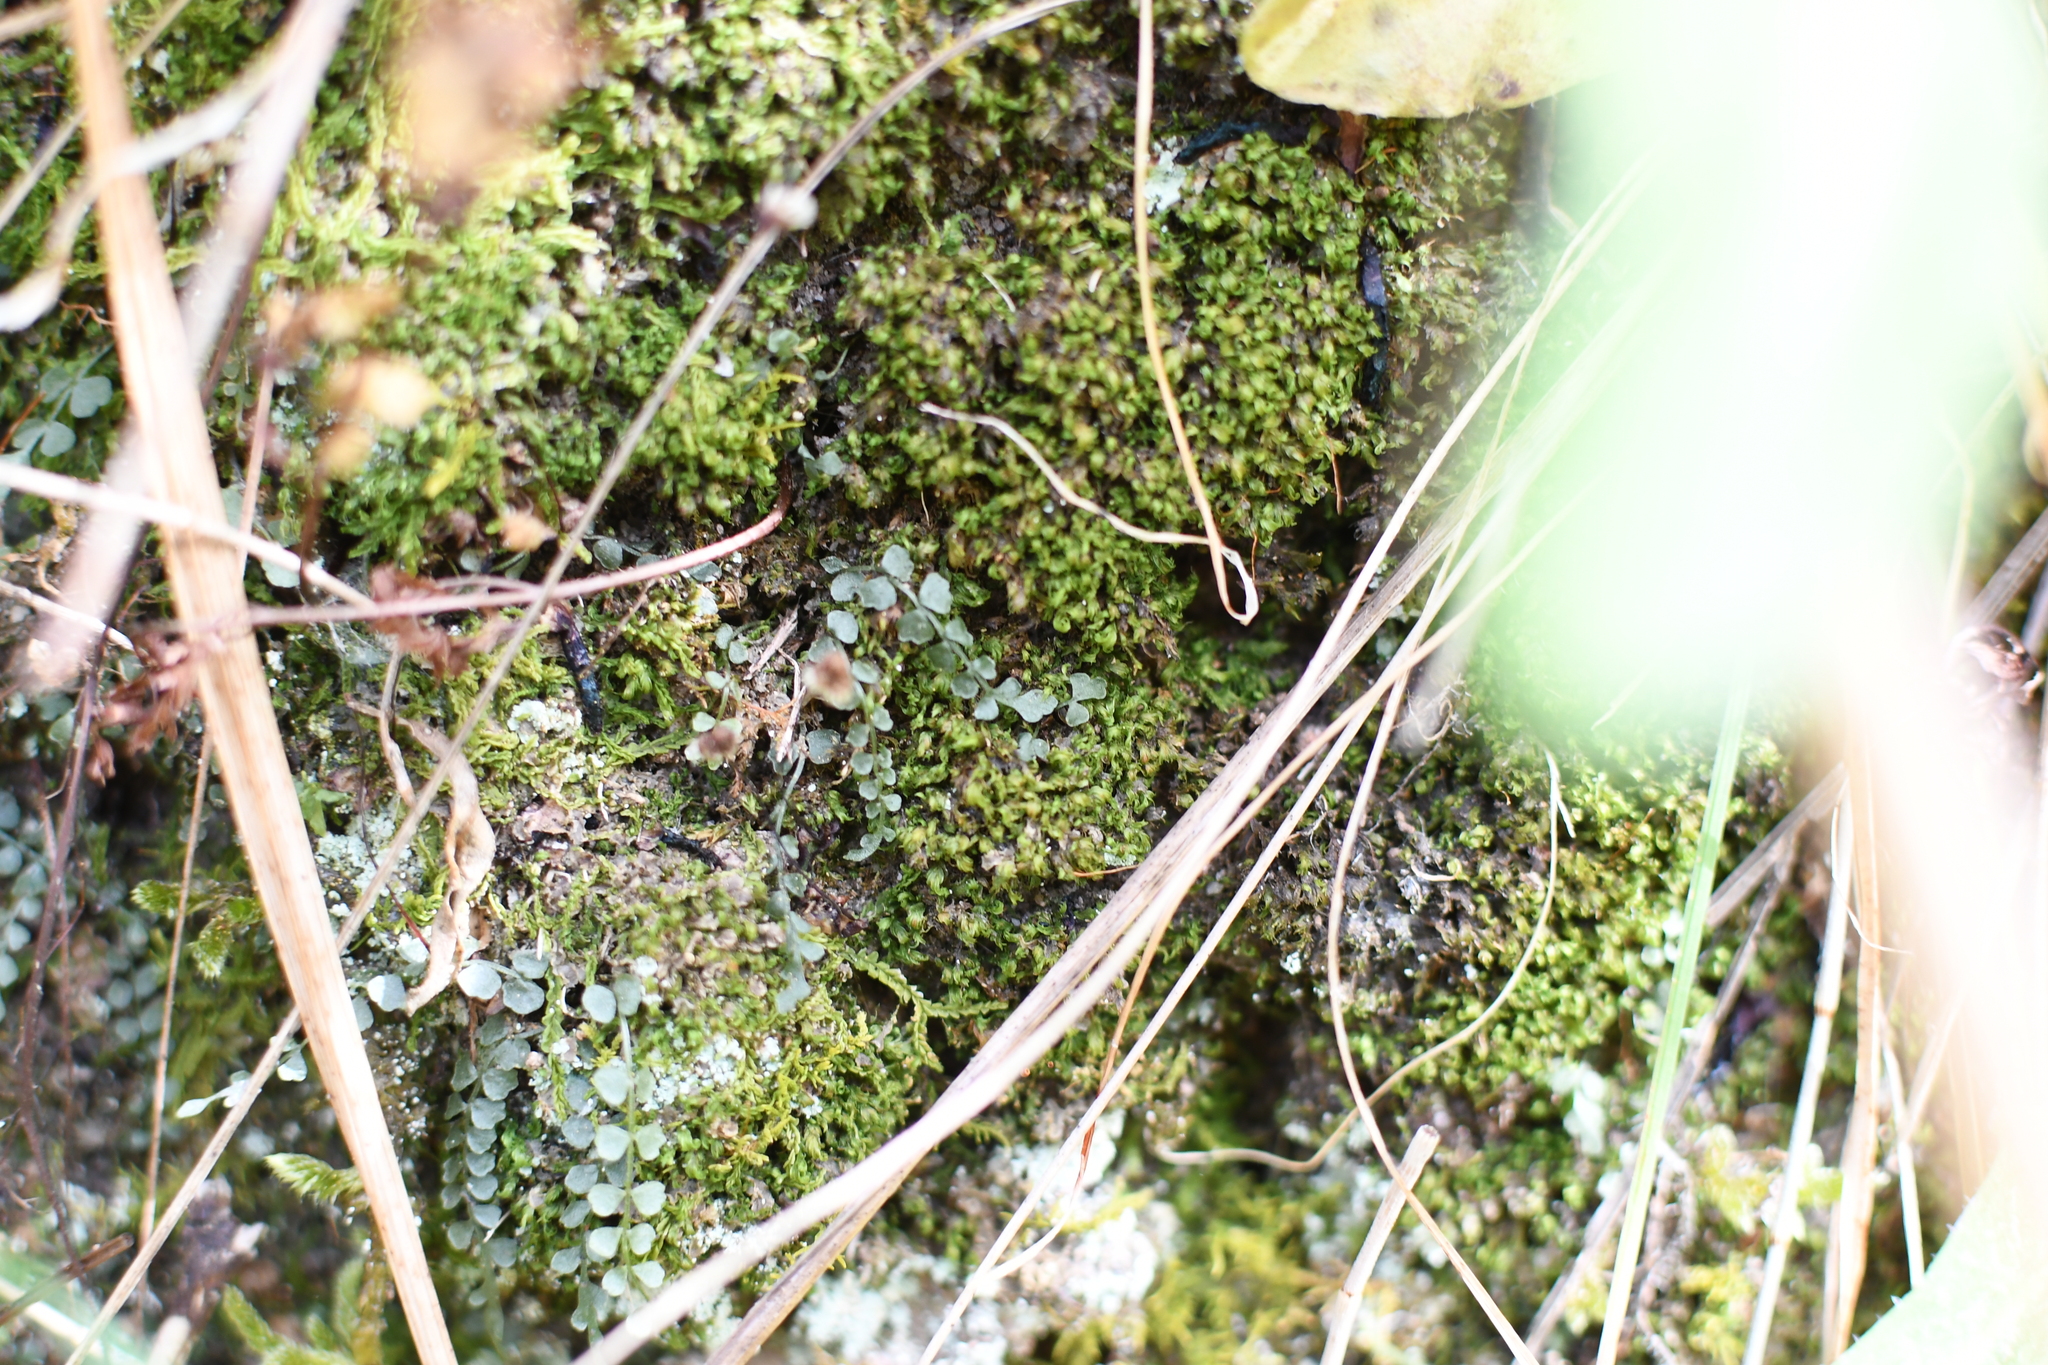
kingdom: Plantae
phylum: Tracheophyta
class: Polypodiopsida
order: Polypodiales
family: Aspleniaceae
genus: Asplenium
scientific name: Asplenium flabellifolium
